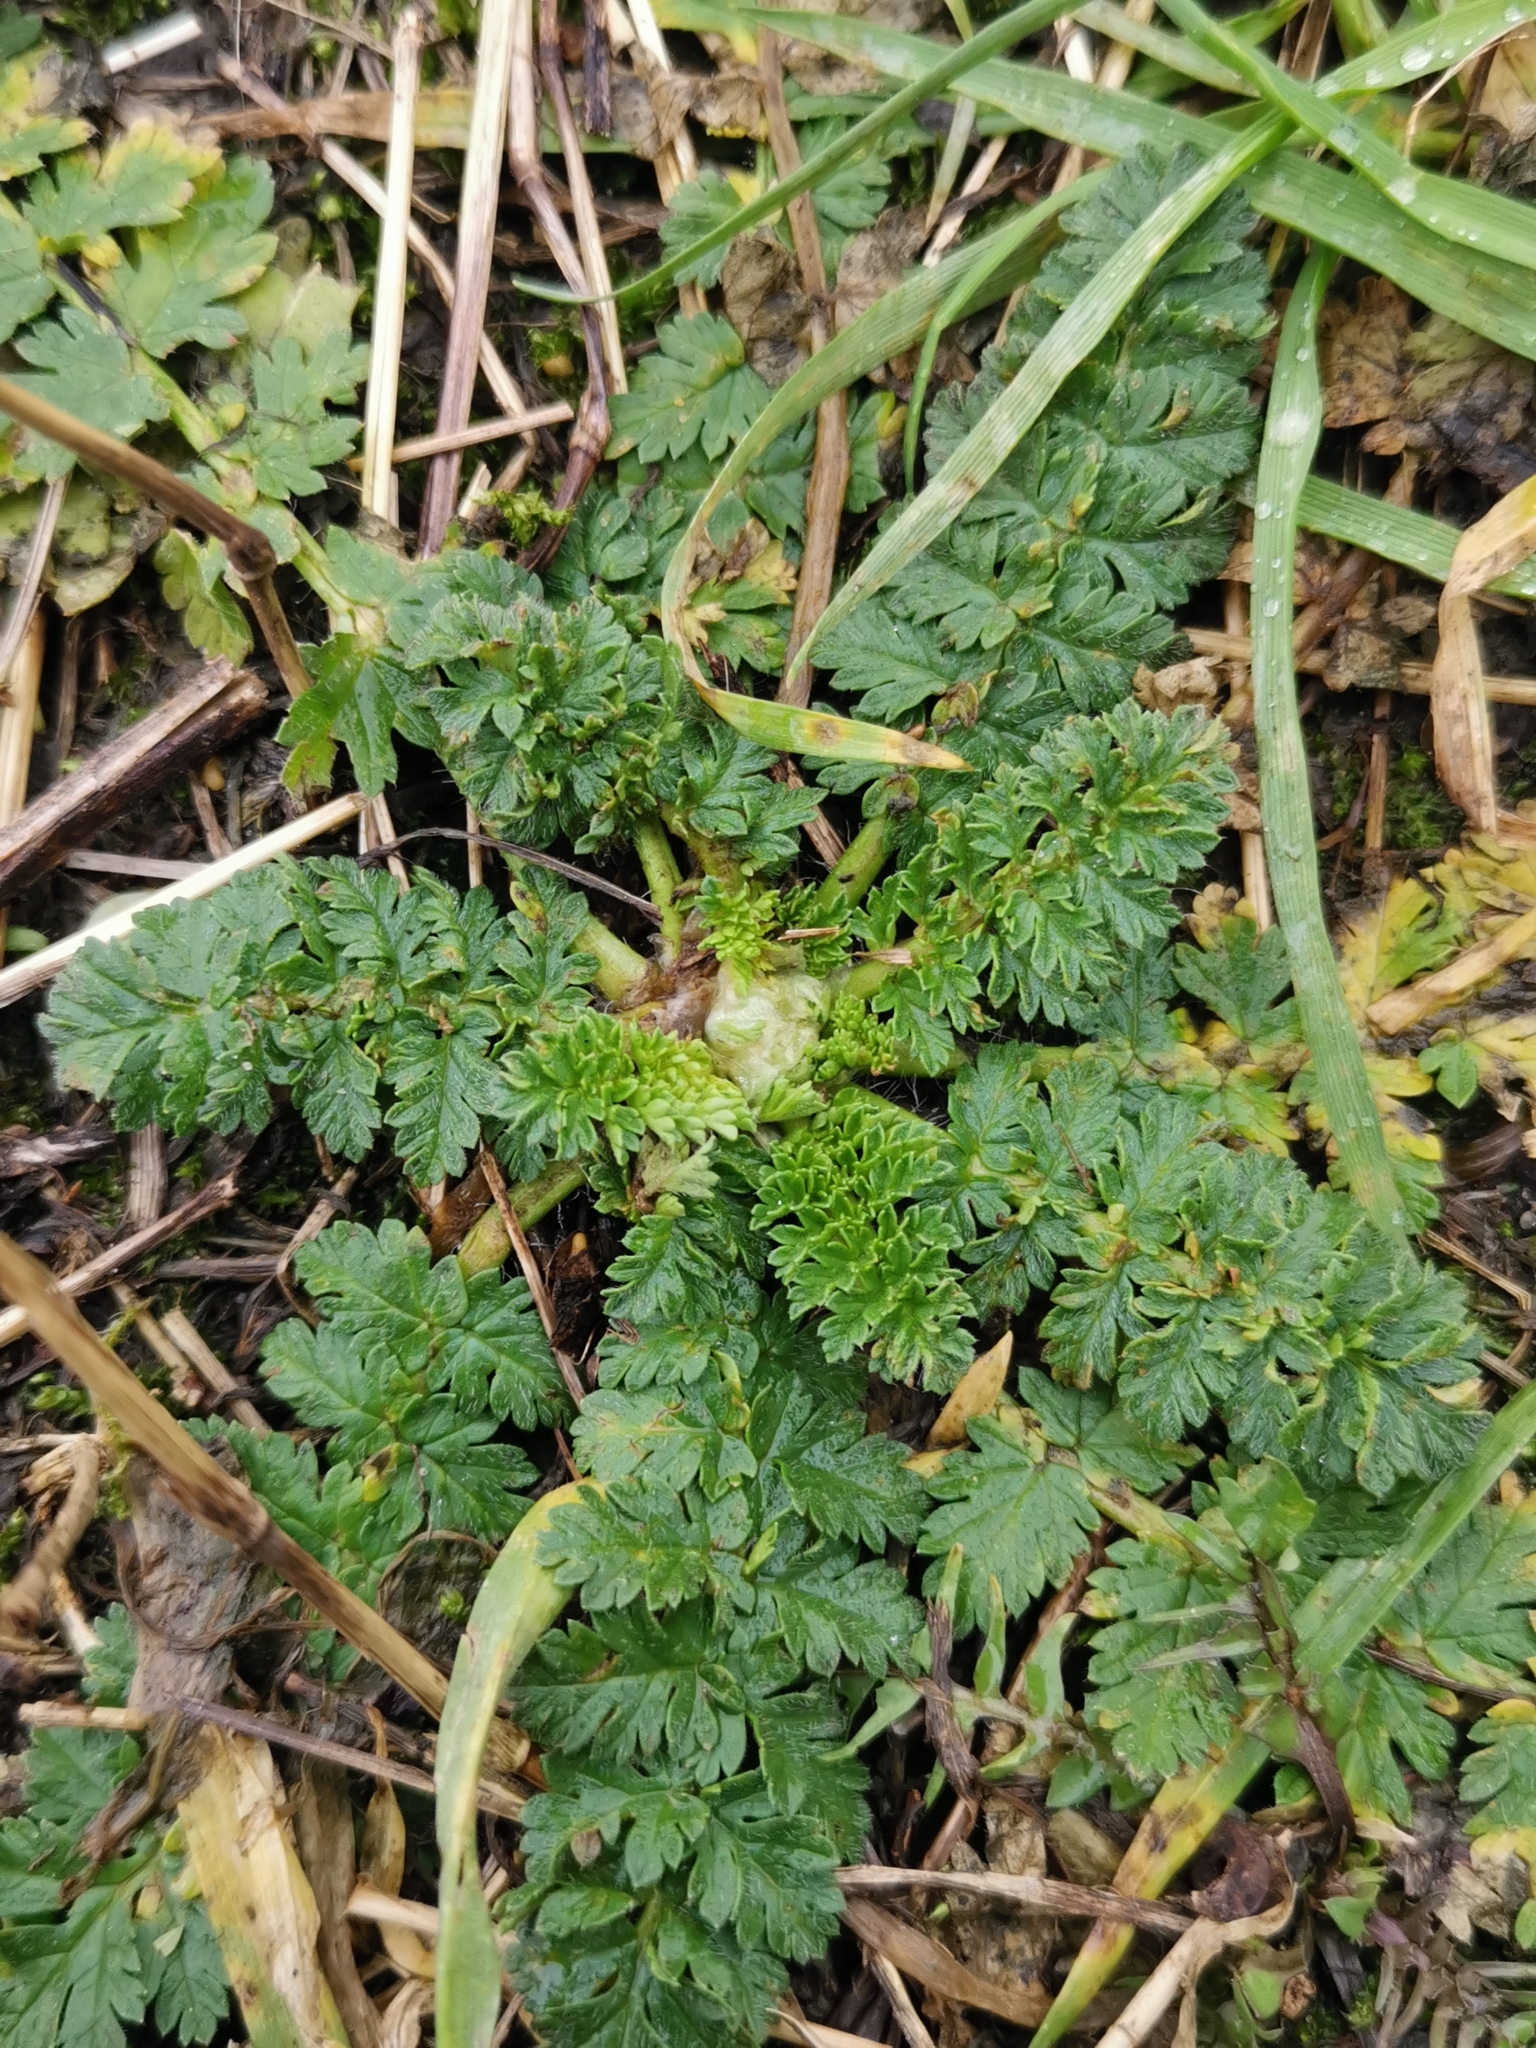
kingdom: Plantae
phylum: Tracheophyta
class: Magnoliopsida
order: Geraniales
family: Geraniaceae
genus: Erodium
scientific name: Erodium cicutarium
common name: Common stork's-bill
